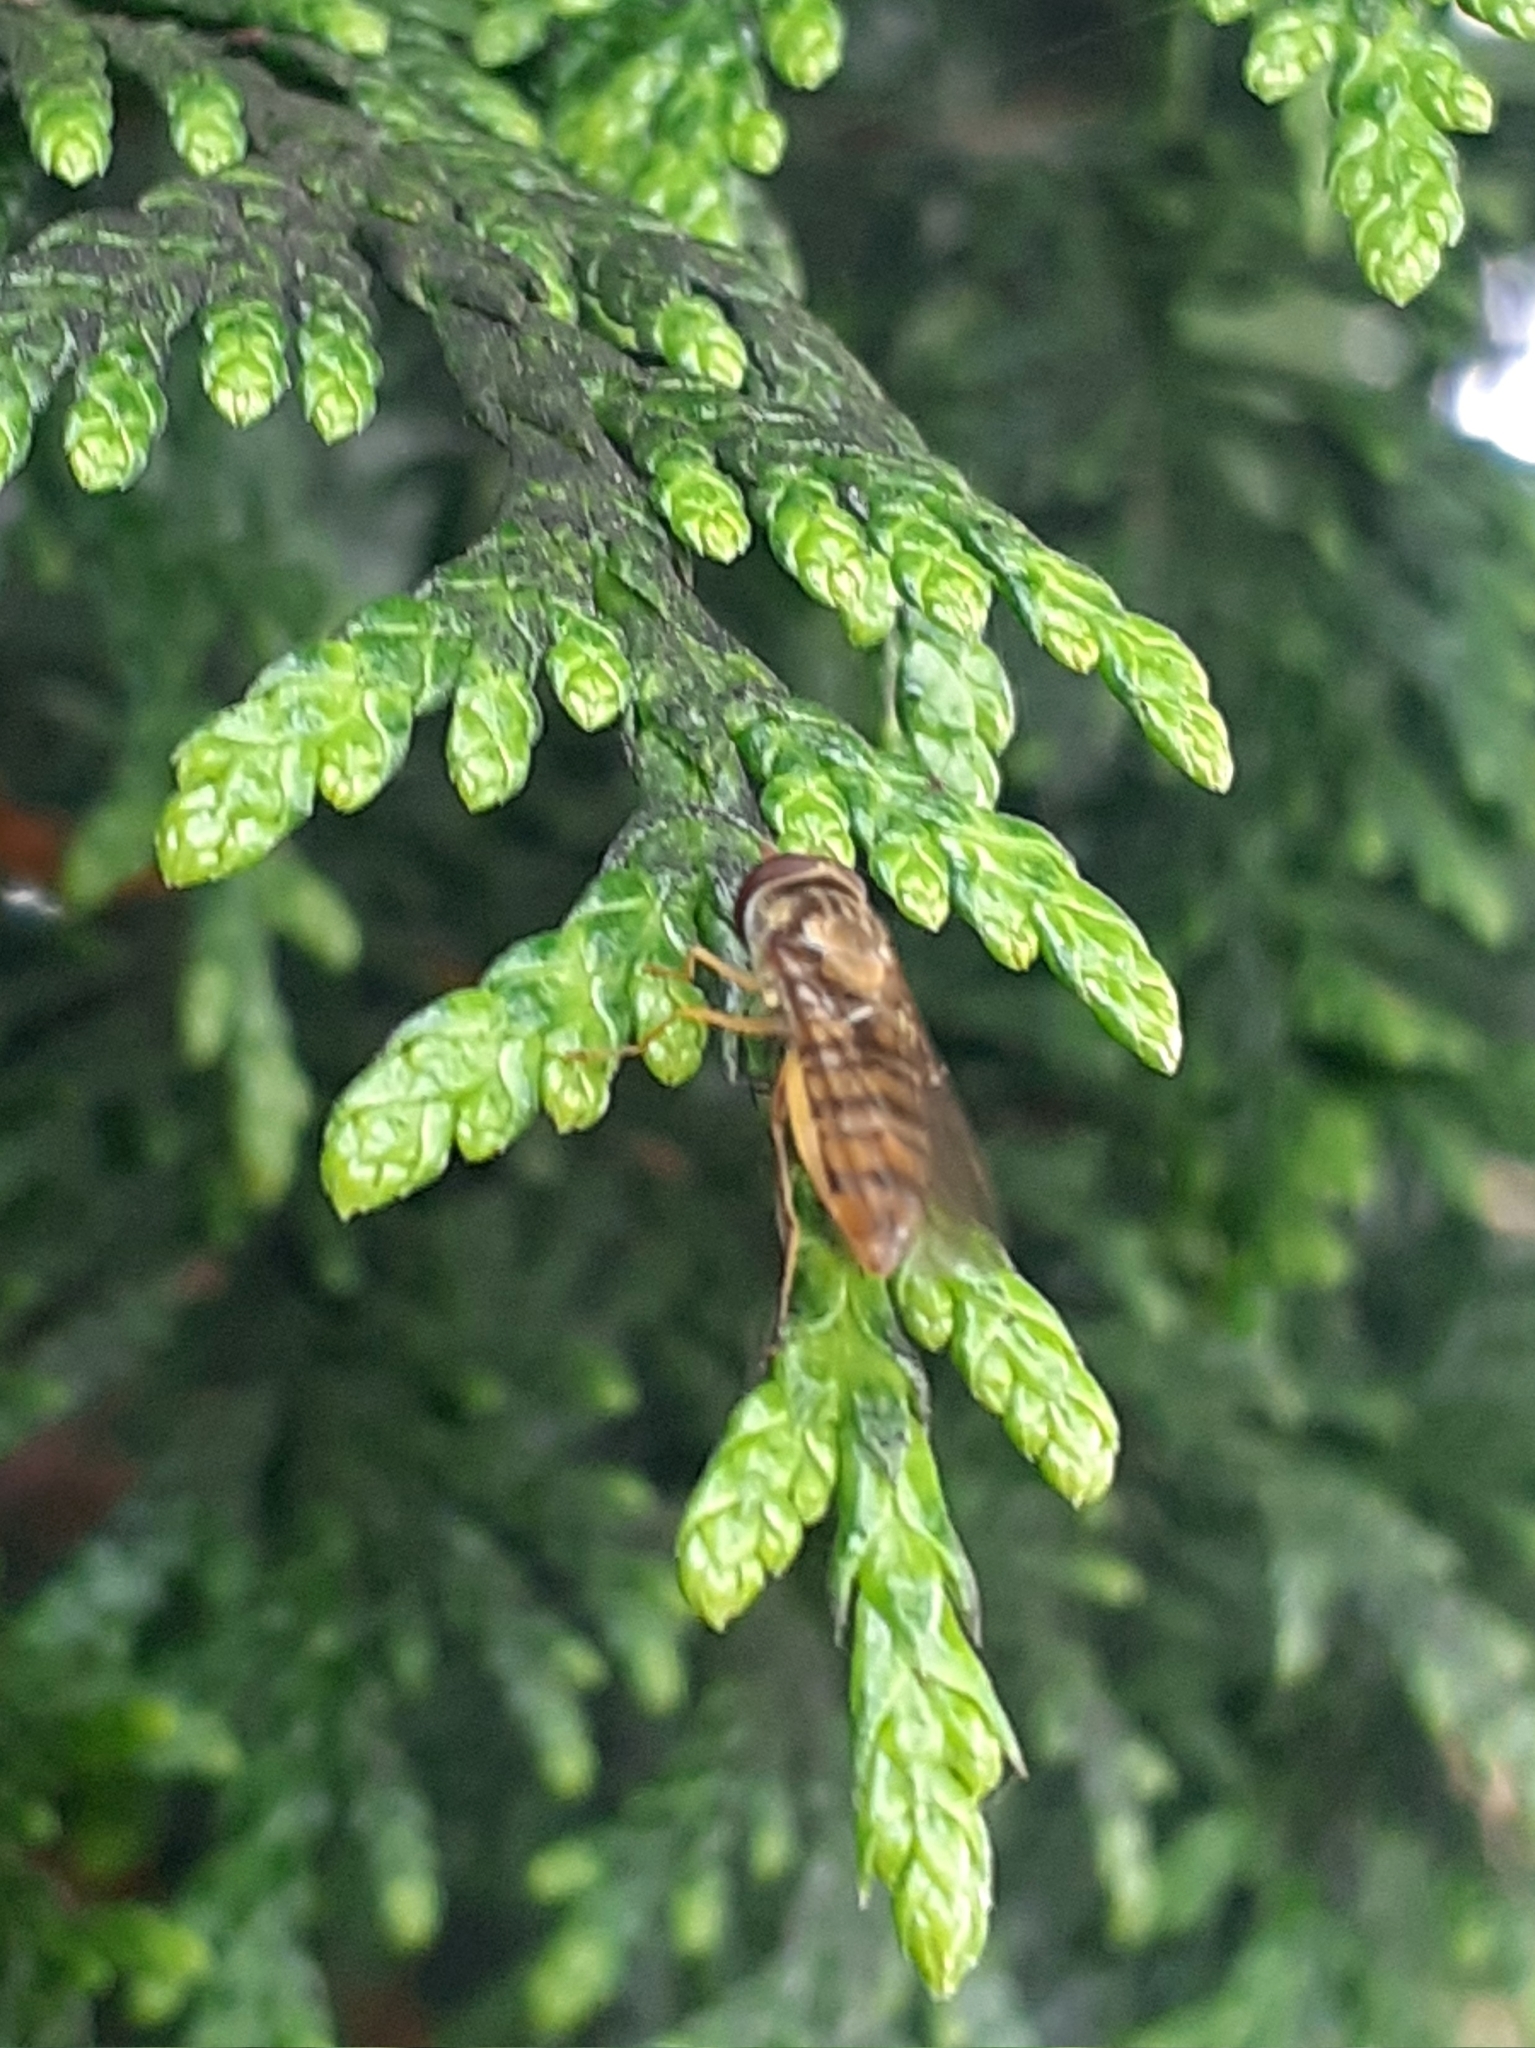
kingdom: Animalia
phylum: Arthropoda
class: Insecta
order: Diptera
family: Syrphidae
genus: Episyrphus
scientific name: Episyrphus balteatus
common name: Marmalade hoverfly
